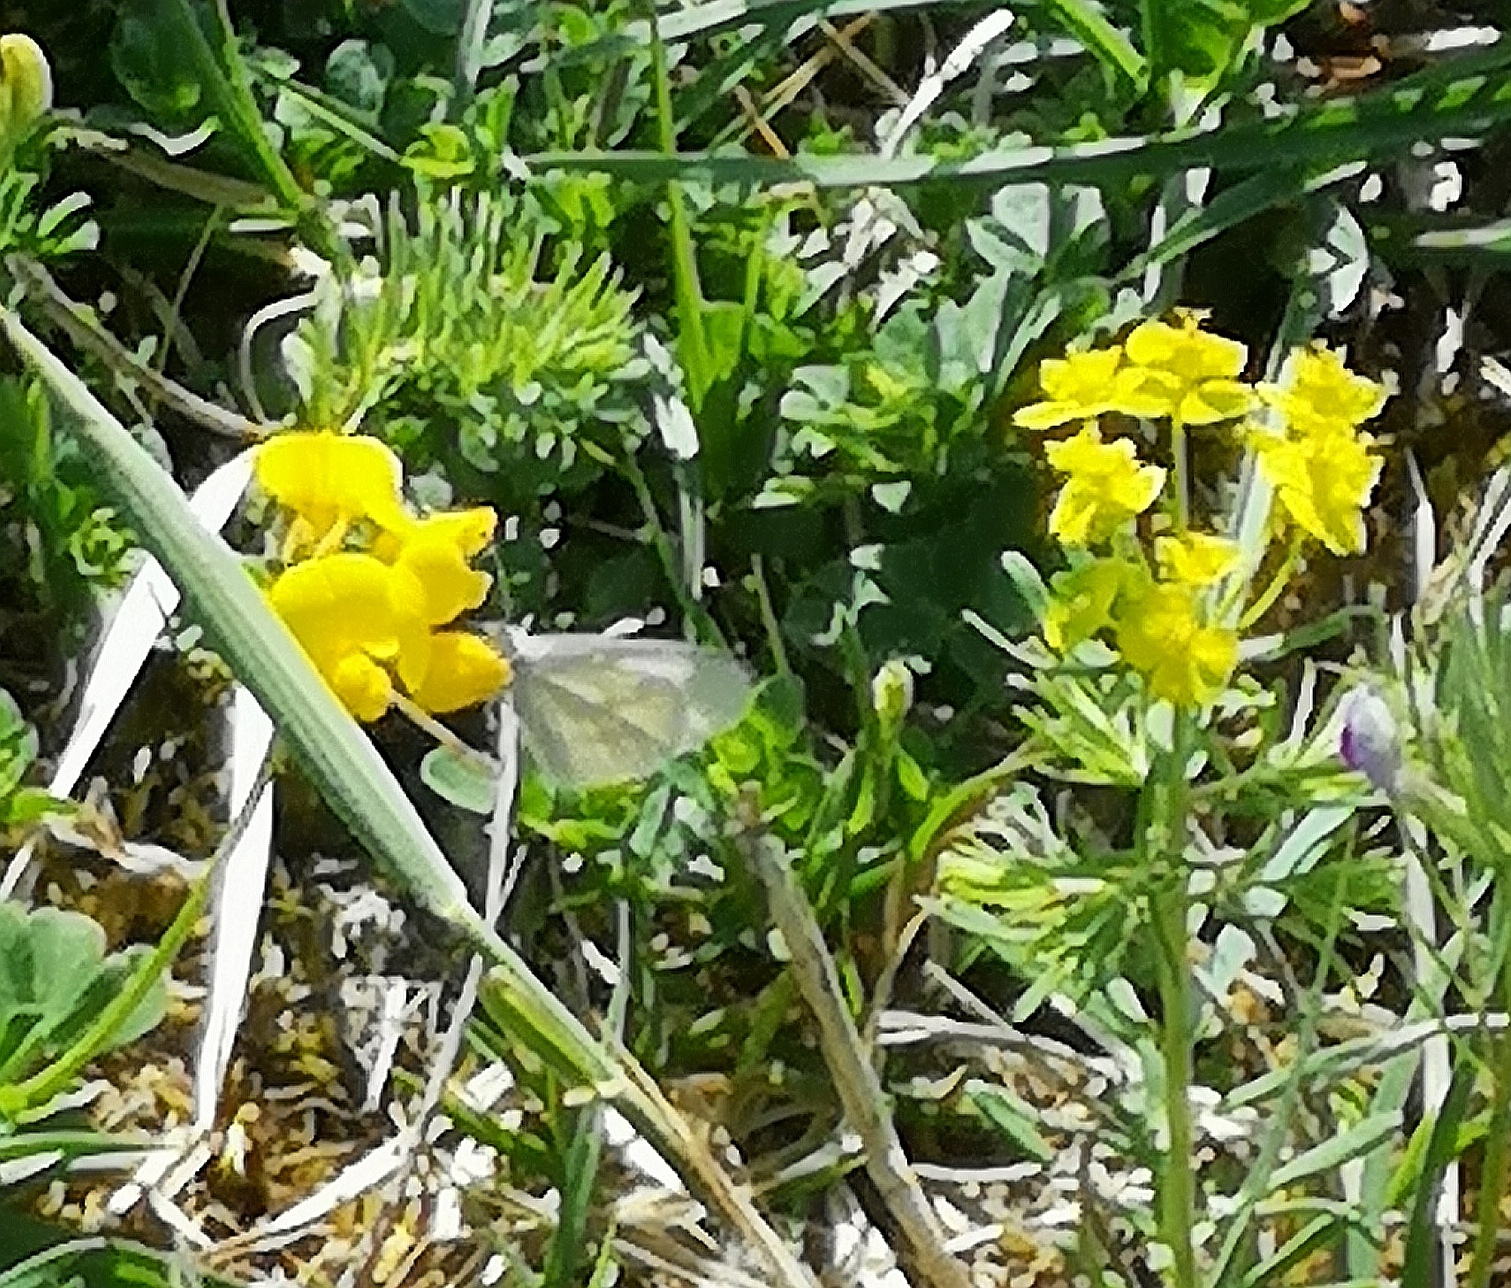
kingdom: Animalia
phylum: Arthropoda
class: Insecta
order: Lepidoptera
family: Pieridae
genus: Leptidea
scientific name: Leptidea
